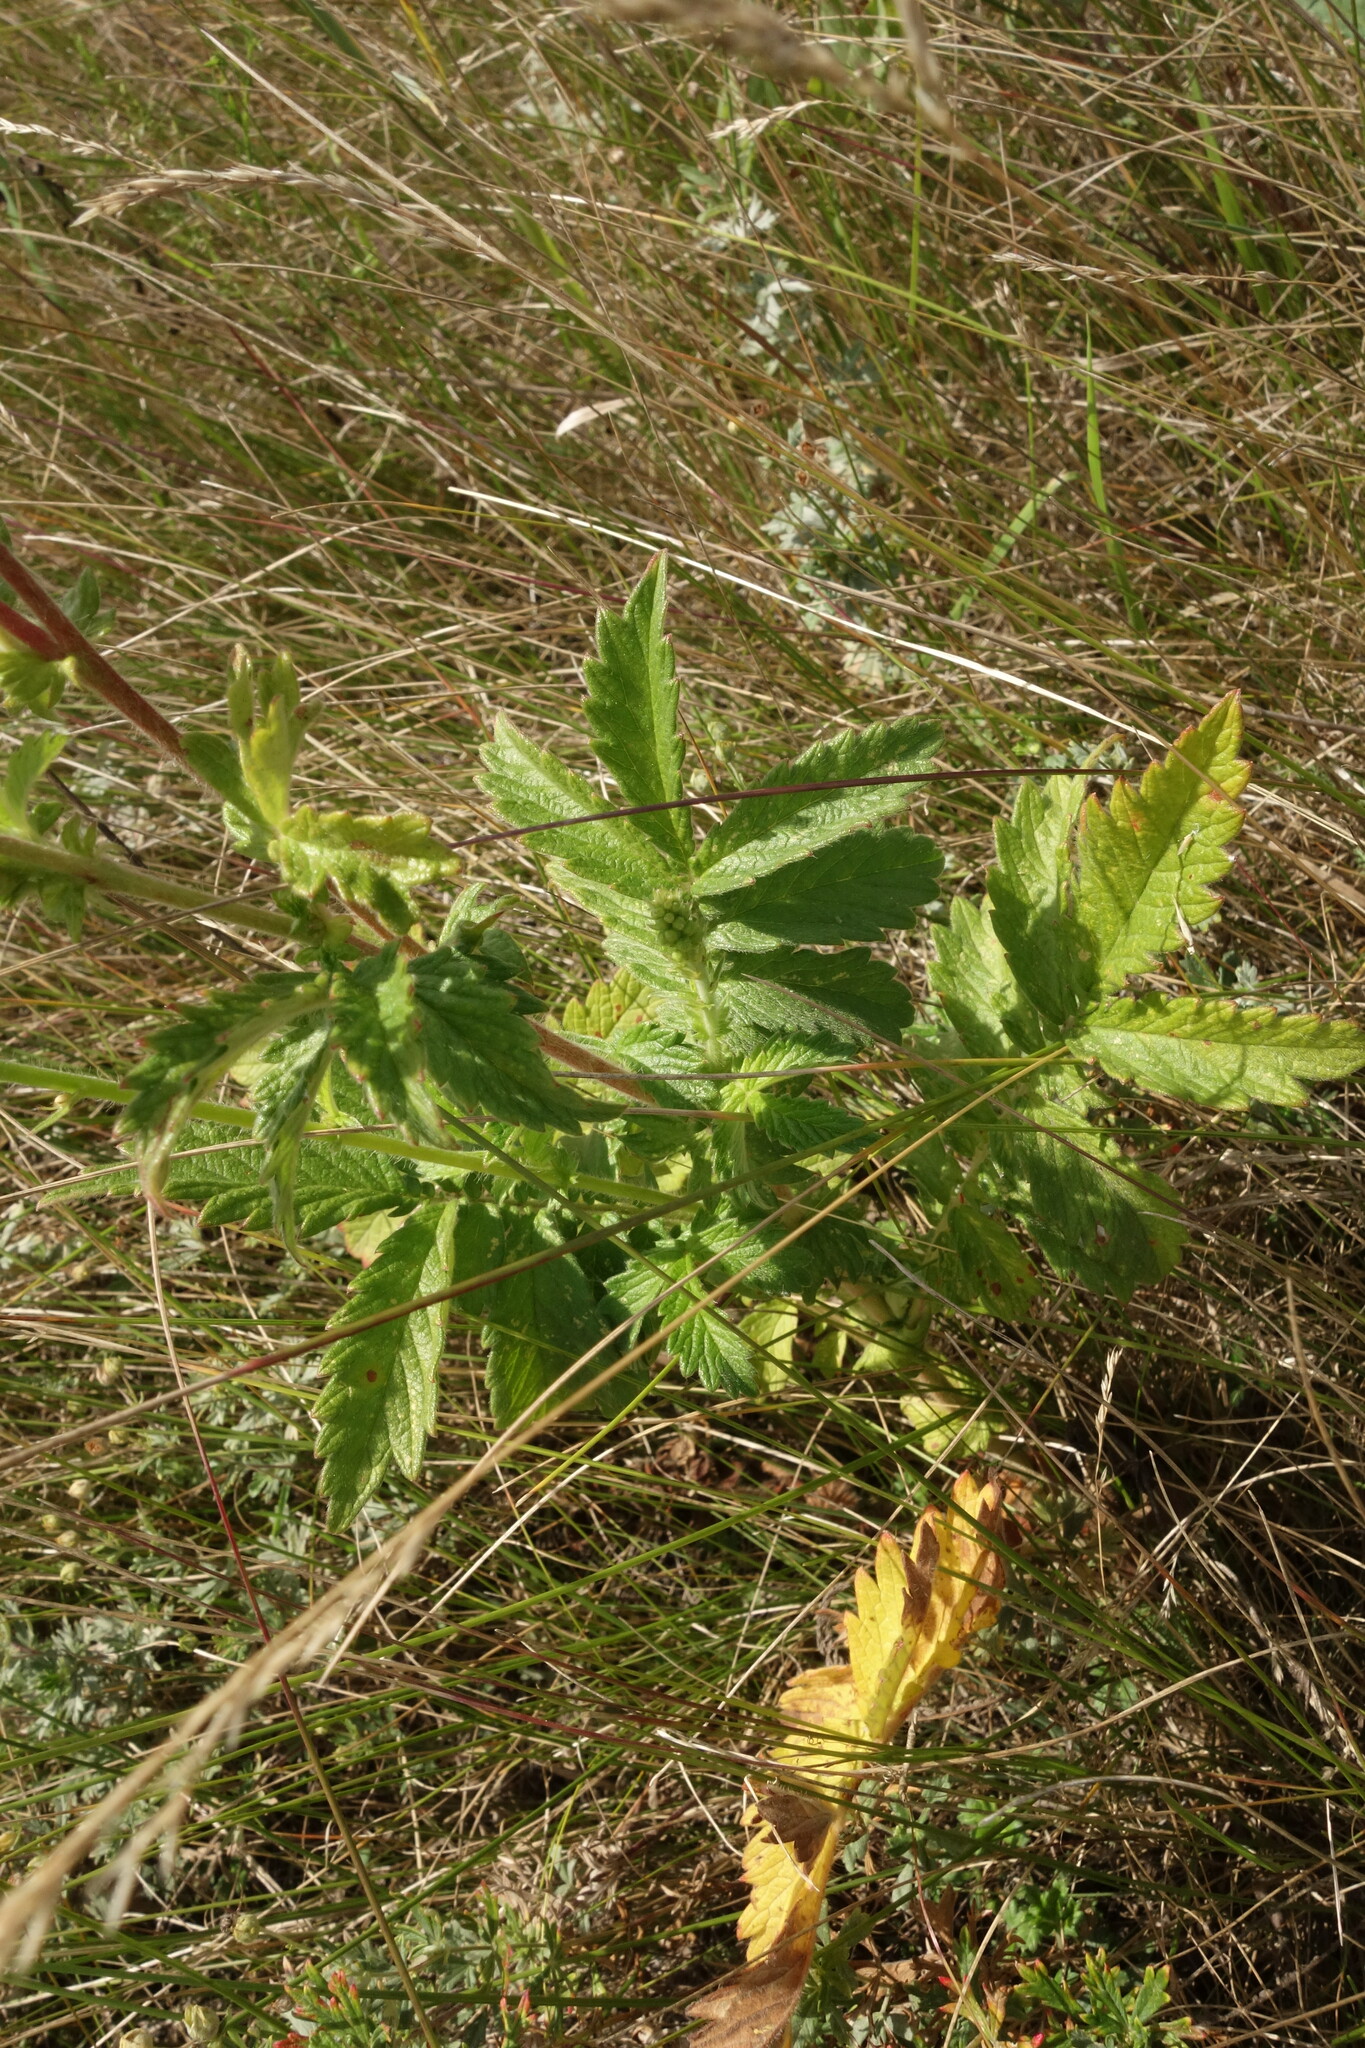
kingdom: Plantae
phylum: Tracheophyta
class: Magnoliopsida
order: Rosales
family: Rosaceae
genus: Agrimonia
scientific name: Agrimonia eupatoria
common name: Agrimony
